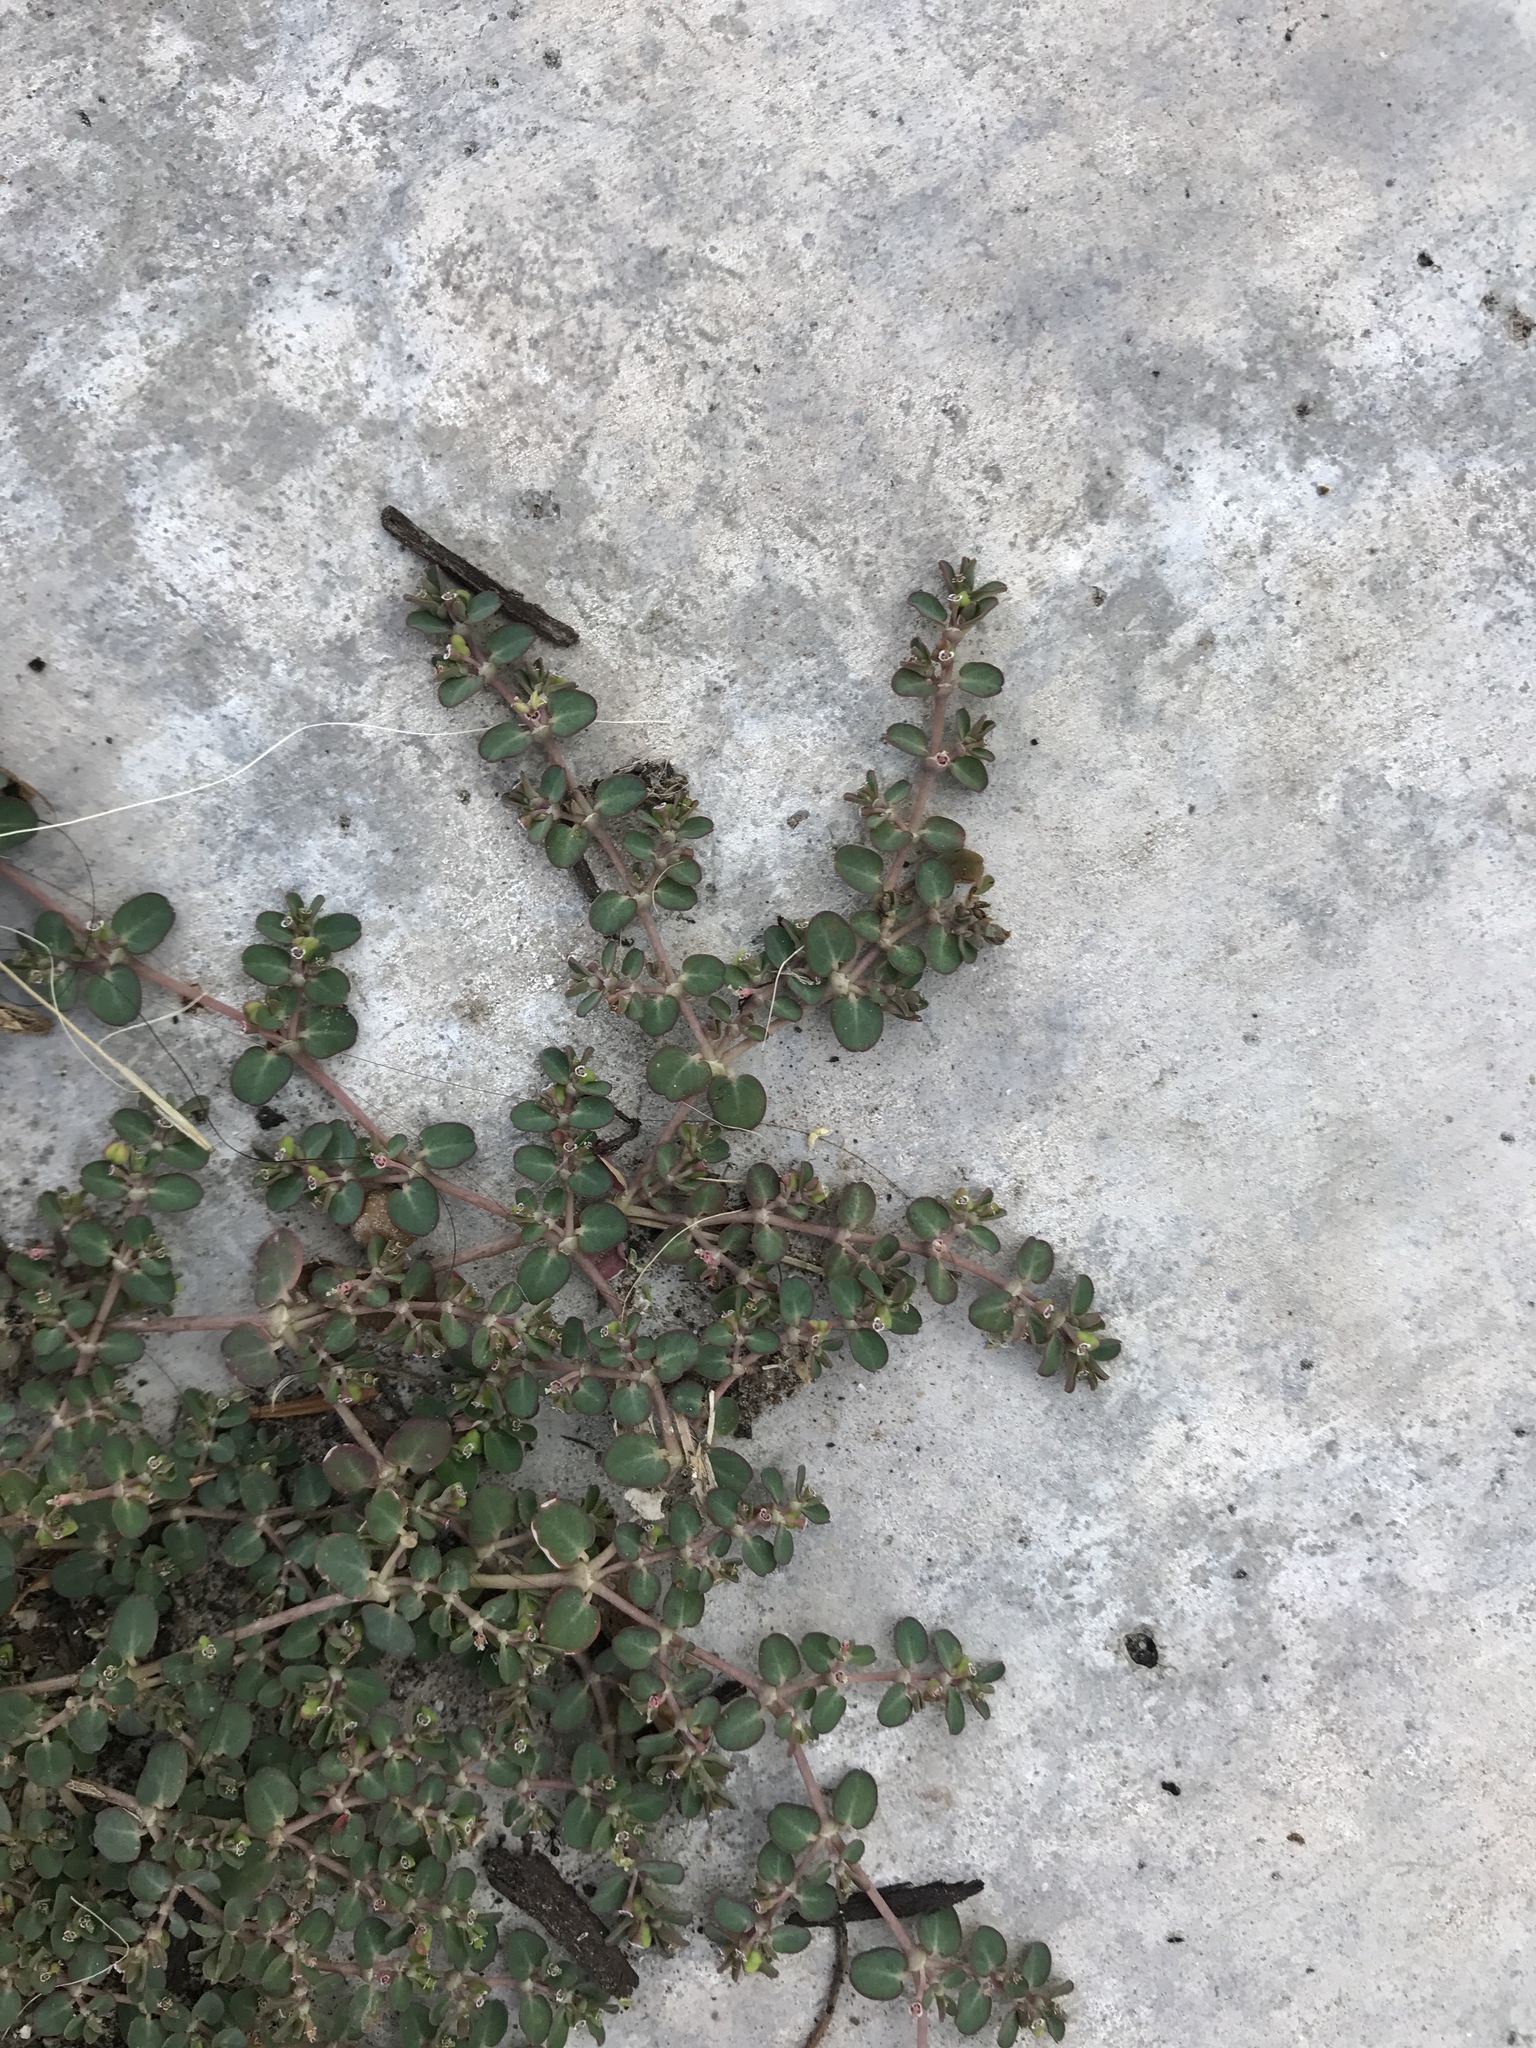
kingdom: Plantae
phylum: Tracheophyta
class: Magnoliopsida
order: Malpighiales
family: Euphorbiaceae
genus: Euphorbia
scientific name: Euphorbia serpens
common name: Matted sandmat
